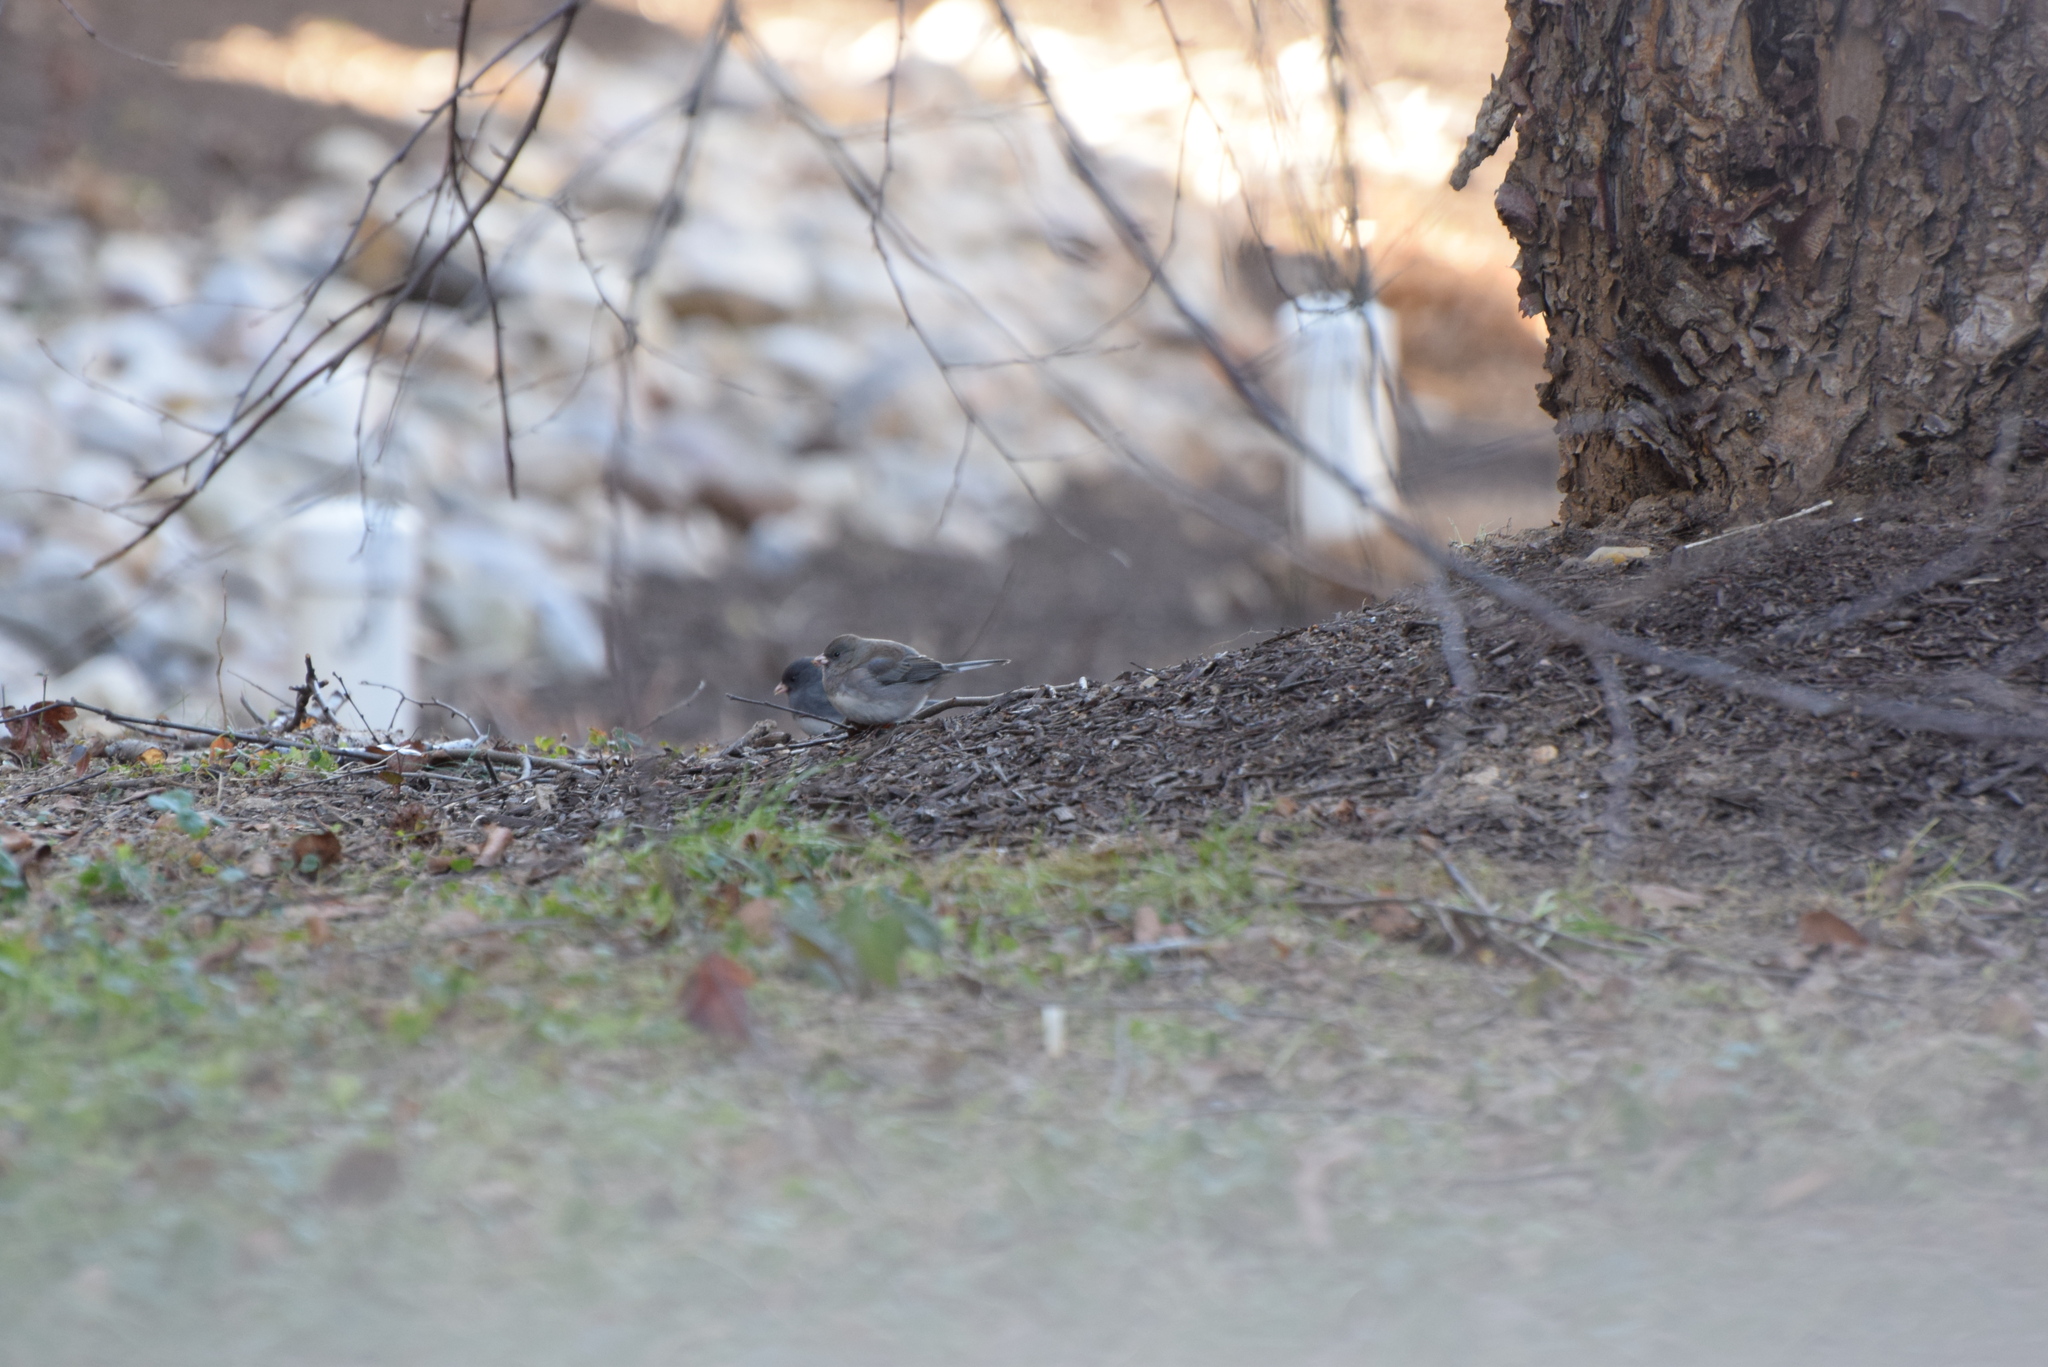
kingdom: Animalia
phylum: Chordata
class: Aves
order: Passeriformes
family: Passerellidae
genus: Junco
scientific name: Junco hyemalis
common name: Dark-eyed junco
